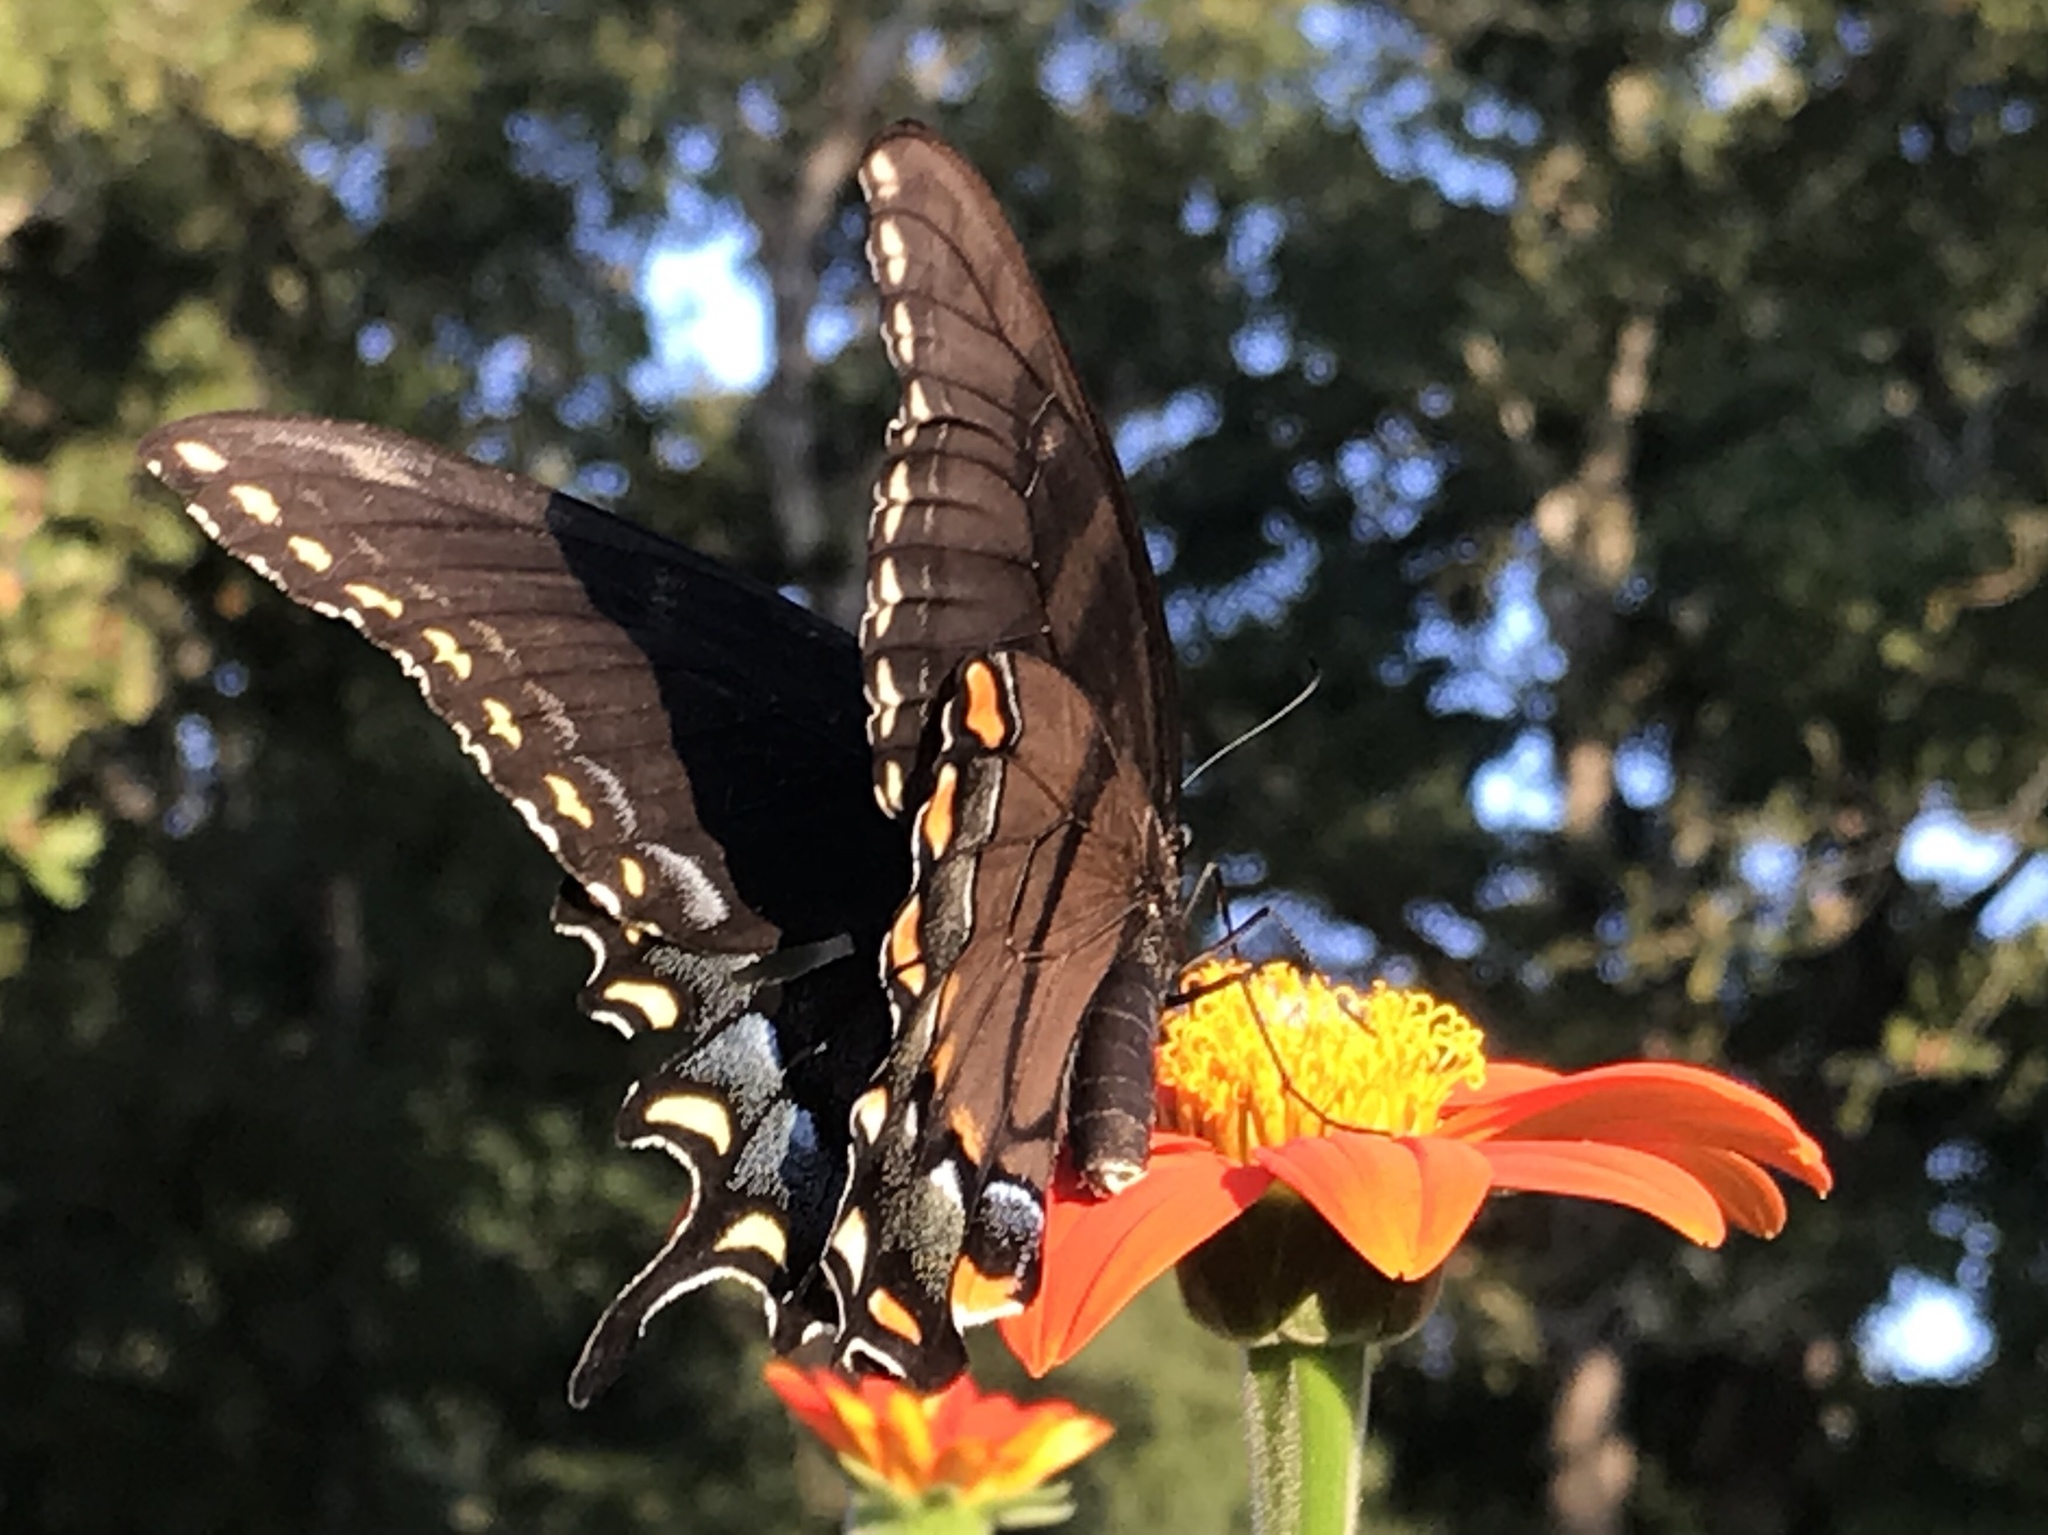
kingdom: Animalia
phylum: Arthropoda
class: Insecta
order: Lepidoptera
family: Papilionidae
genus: Papilio
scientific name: Papilio glaucus
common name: Tiger swallowtail
